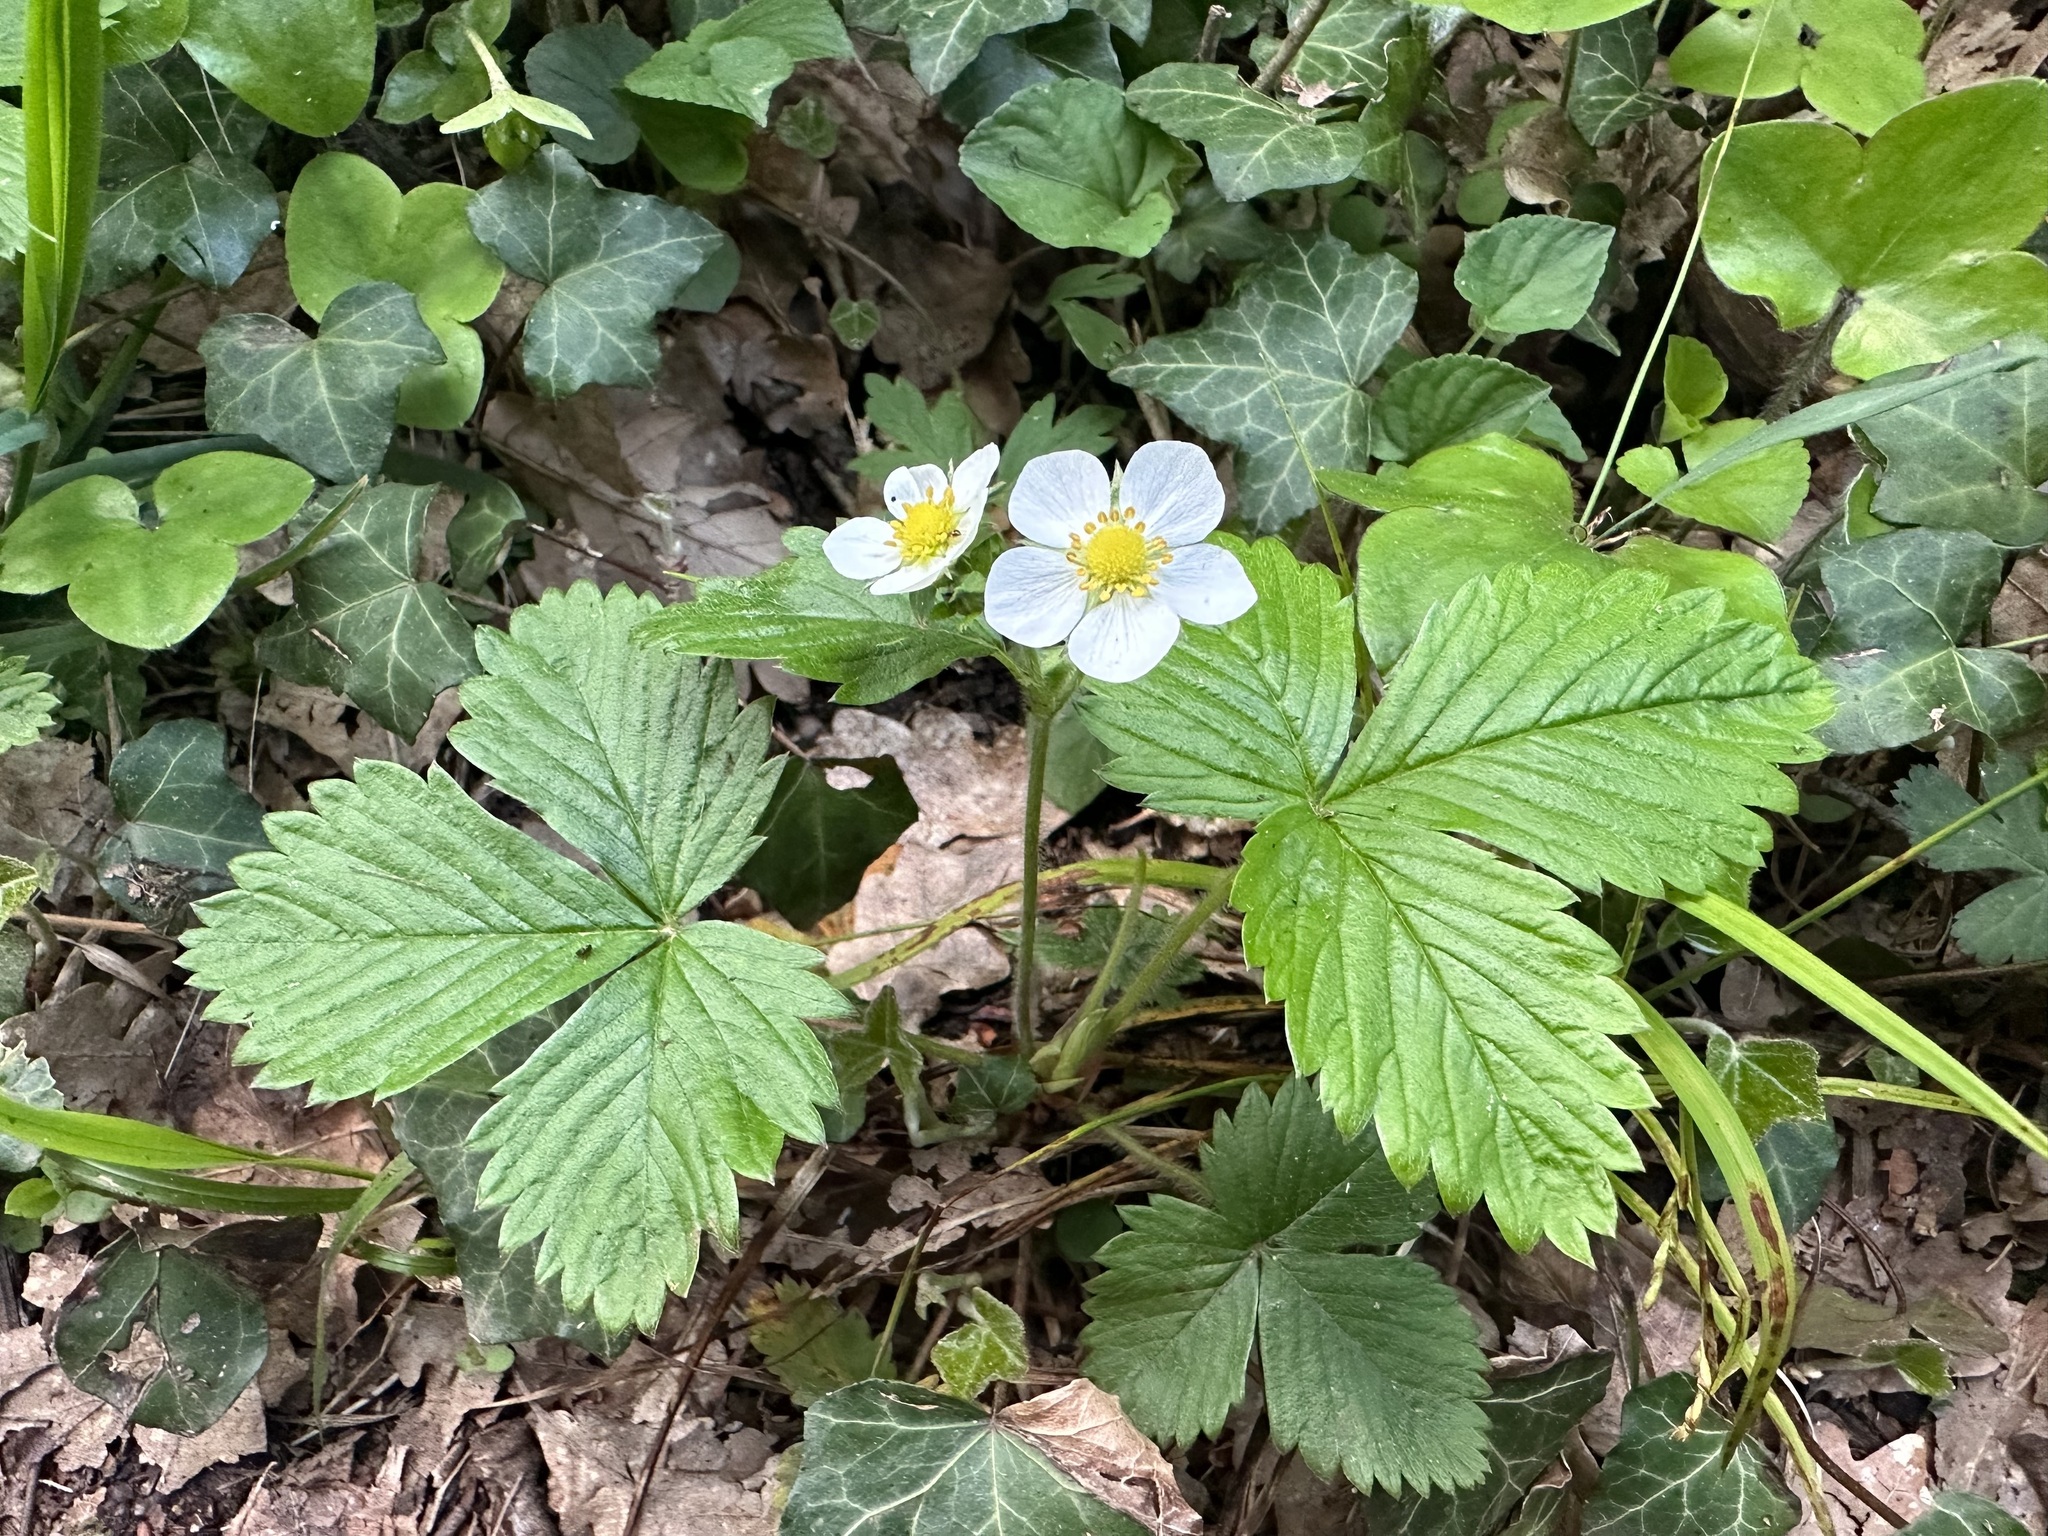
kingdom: Plantae
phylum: Tracheophyta
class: Magnoliopsida
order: Rosales
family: Rosaceae
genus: Fragaria
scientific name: Fragaria vesca
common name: Wild strawberry
